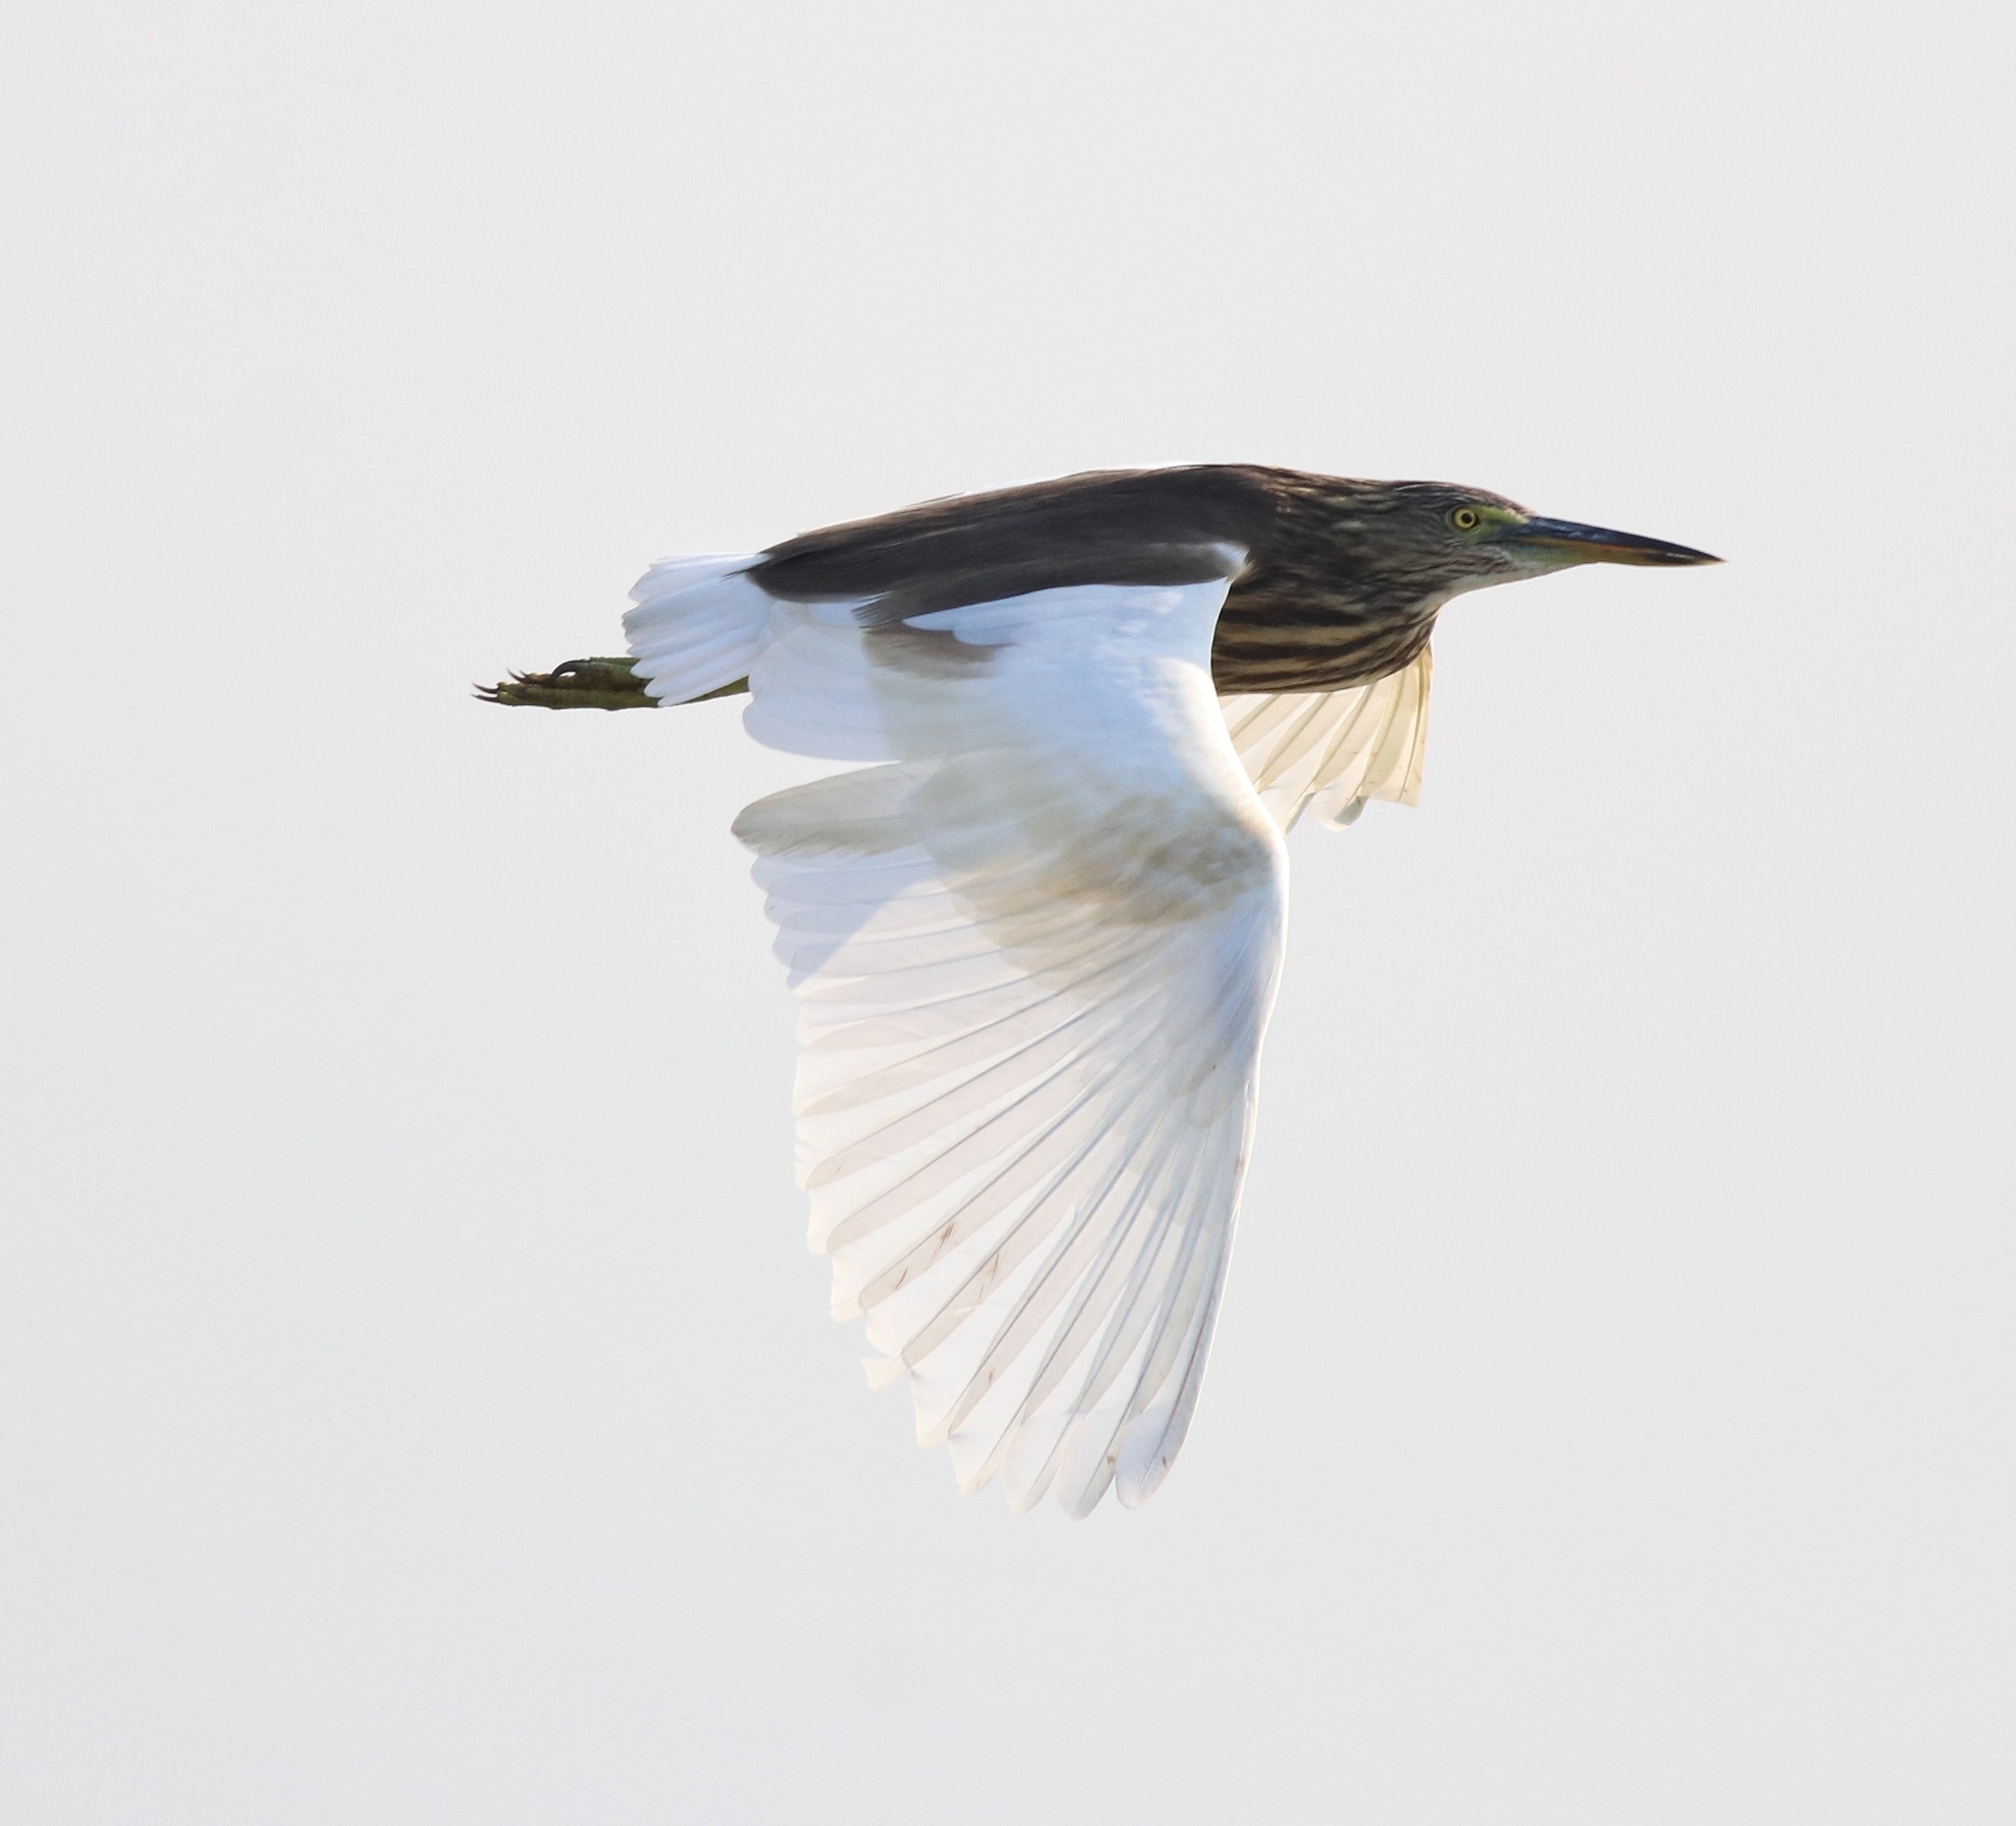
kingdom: Animalia
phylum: Chordata
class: Aves
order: Pelecaniformes
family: Ardeidae
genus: Ardeola
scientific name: Ardeola grayii
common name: Indian pond heron
